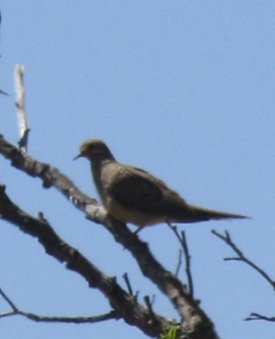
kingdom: Animalia
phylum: Chordata
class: Aves
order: Columbiformes
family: Columbidae
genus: Zenaida
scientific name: Zenaida macroura
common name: Mourning dove
